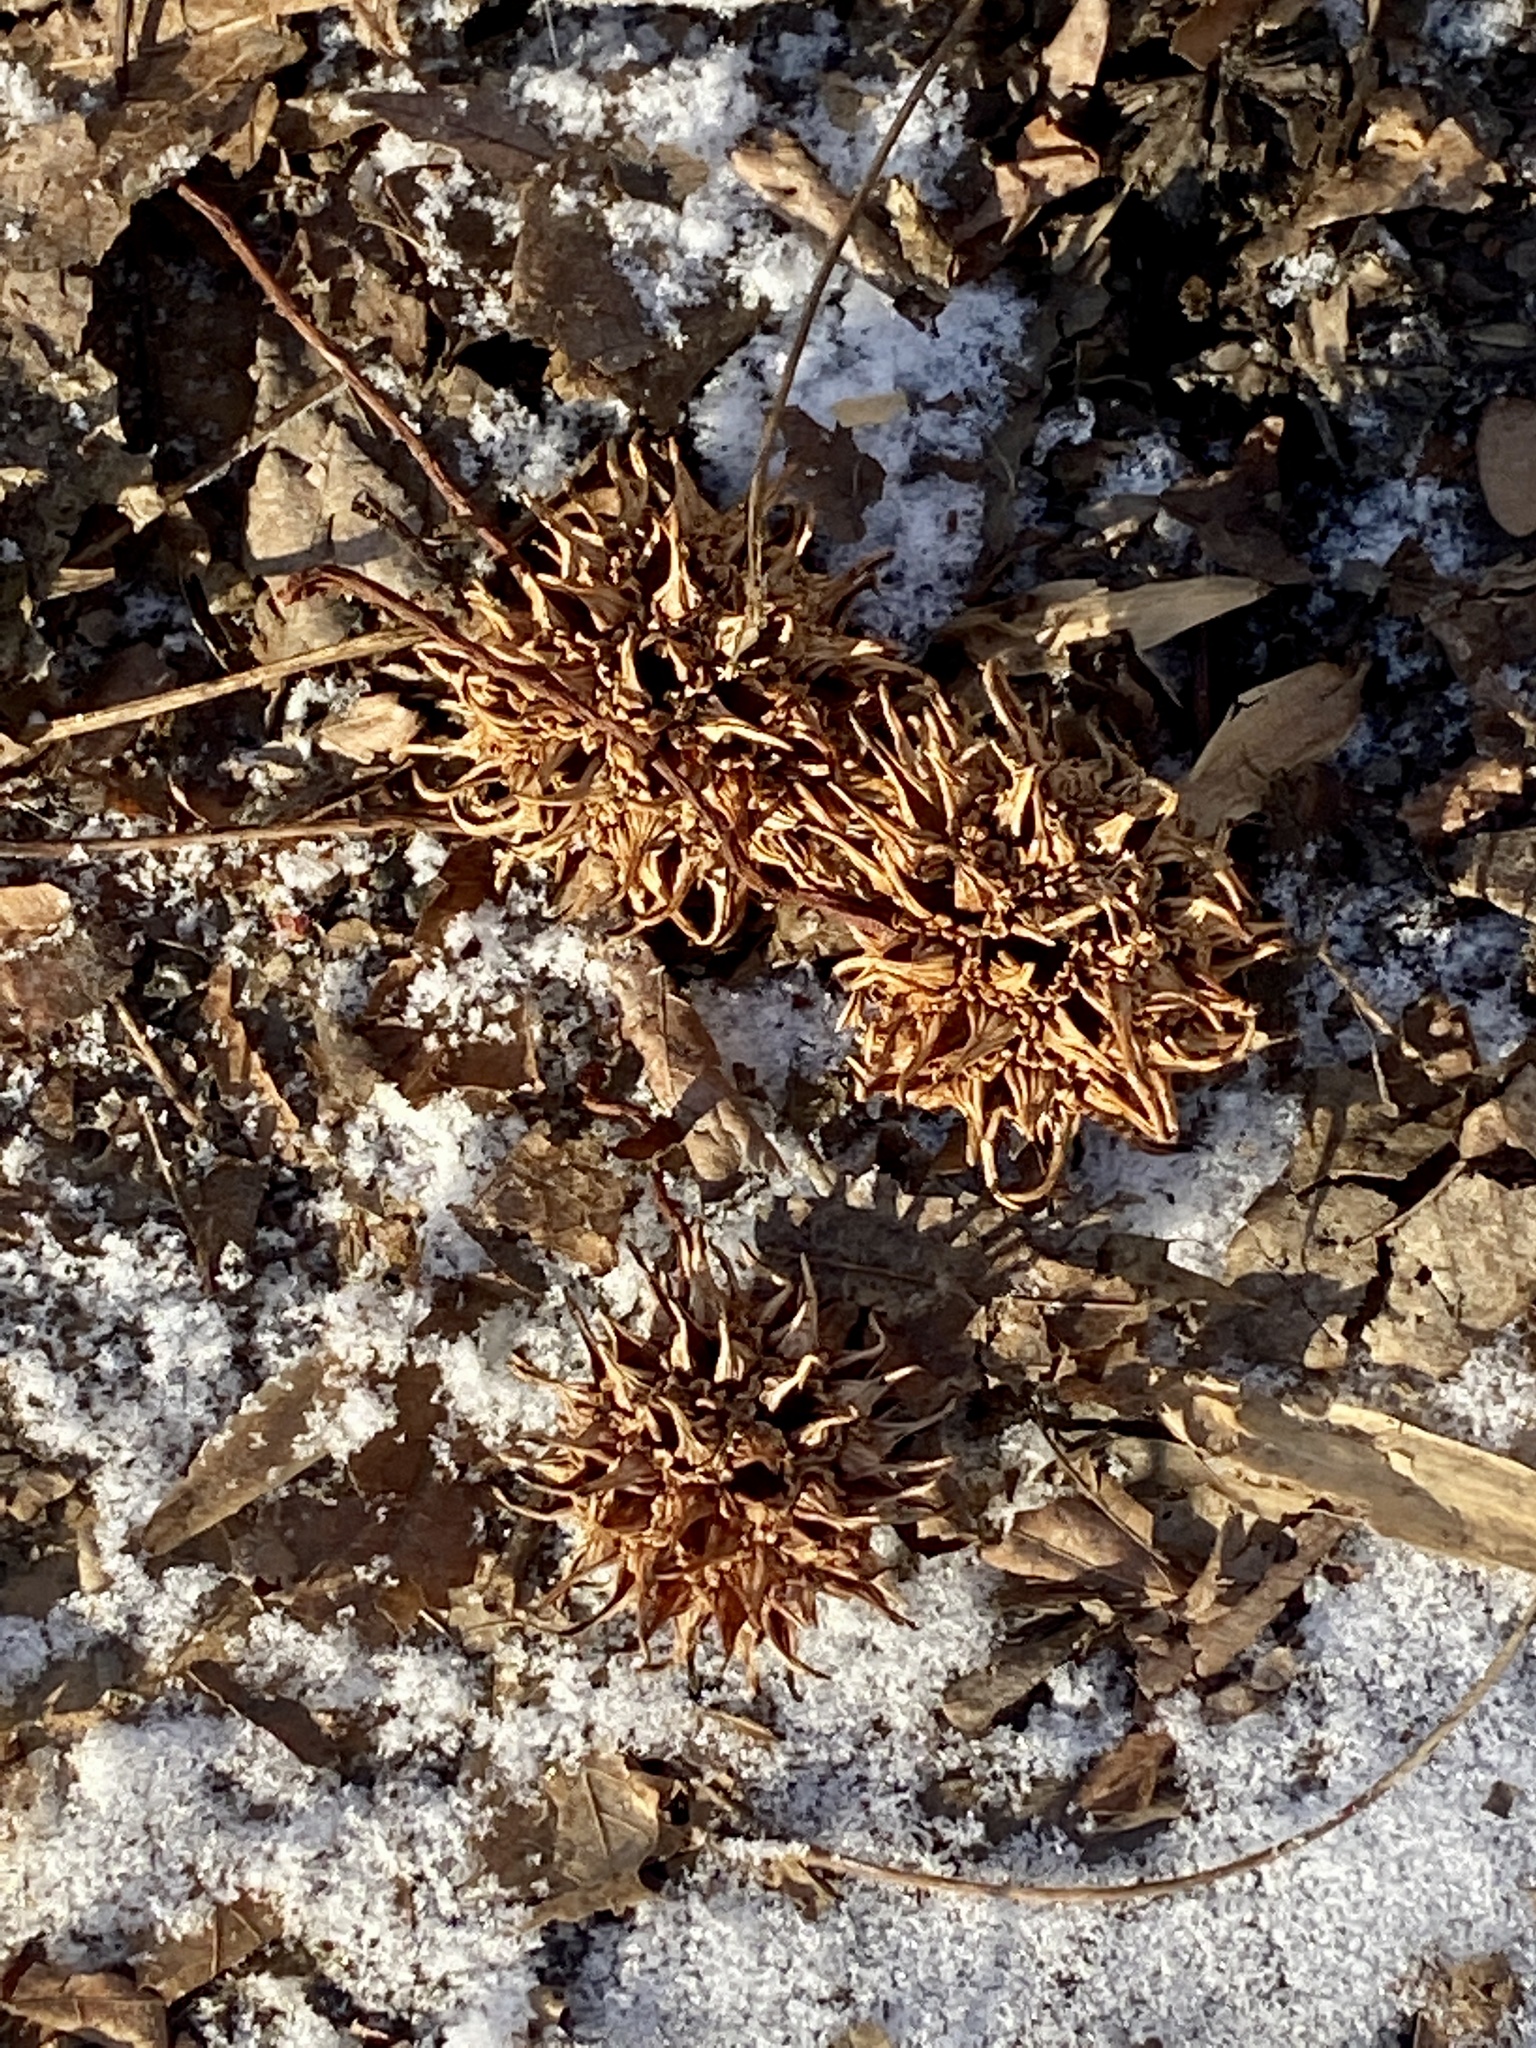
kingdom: Plantae
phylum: Tracheophyta
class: Magnoliopsida
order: Saxifragales
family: Altingiaceae
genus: Liquidambar
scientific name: Liquidambar styraciflua
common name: Sweet gum
